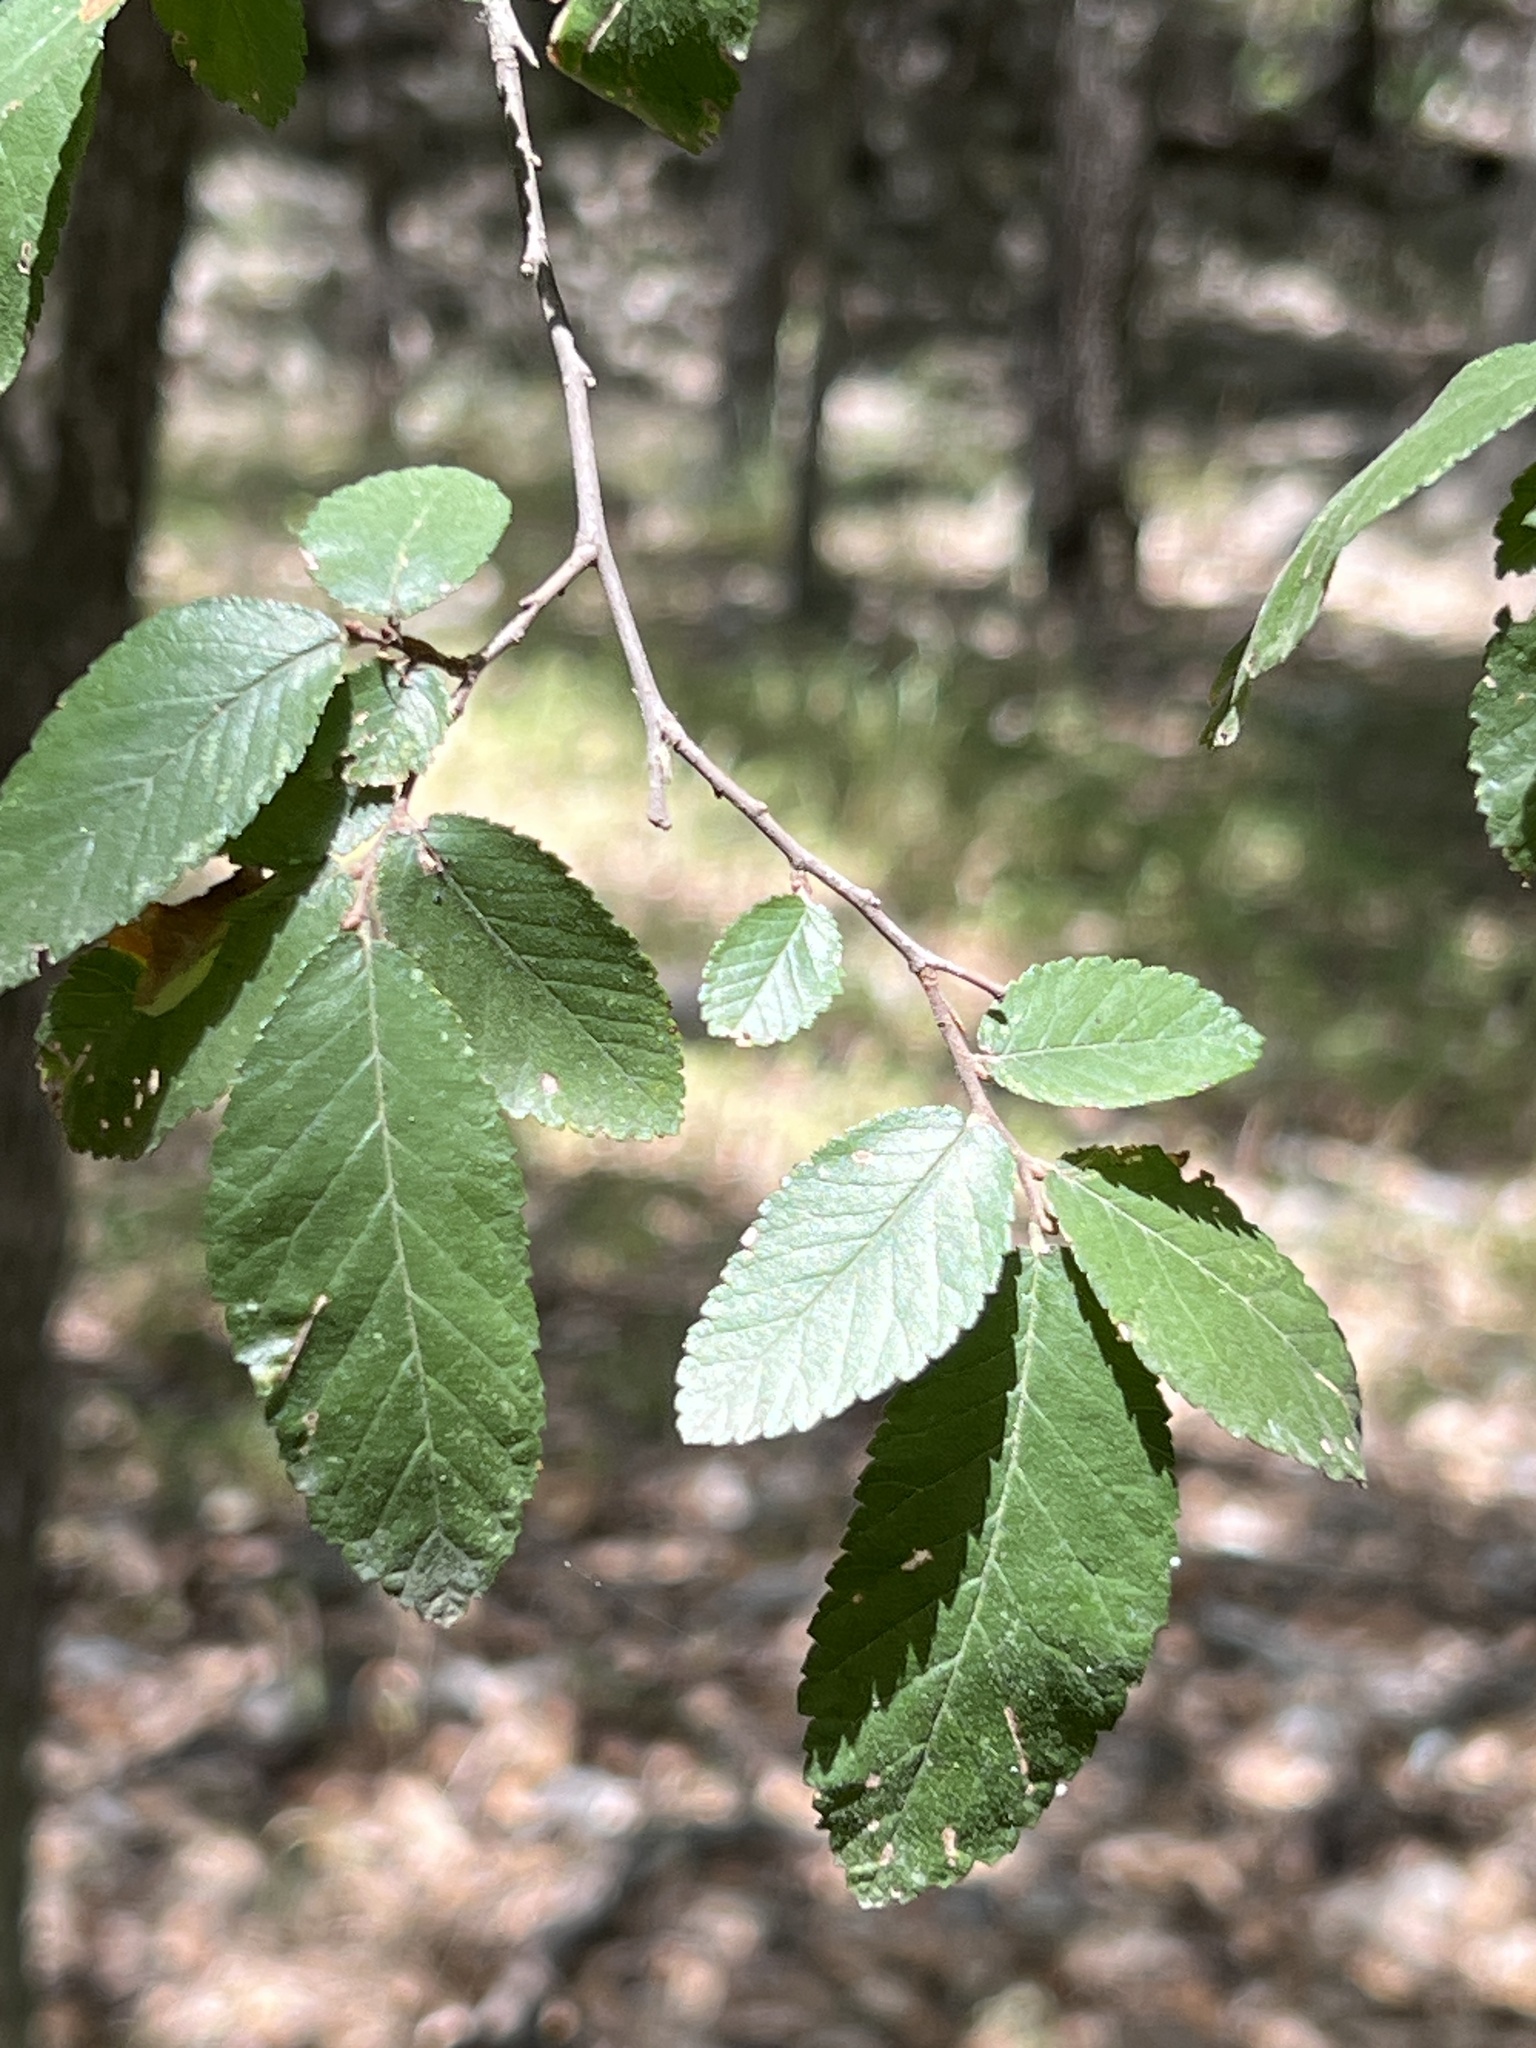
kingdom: Plantae
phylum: Tracheophyta
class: Magnoliopsida
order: Rosales
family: Ulmaceae
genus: Ulmus
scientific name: Ulmus crassifolia
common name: Basket elm
